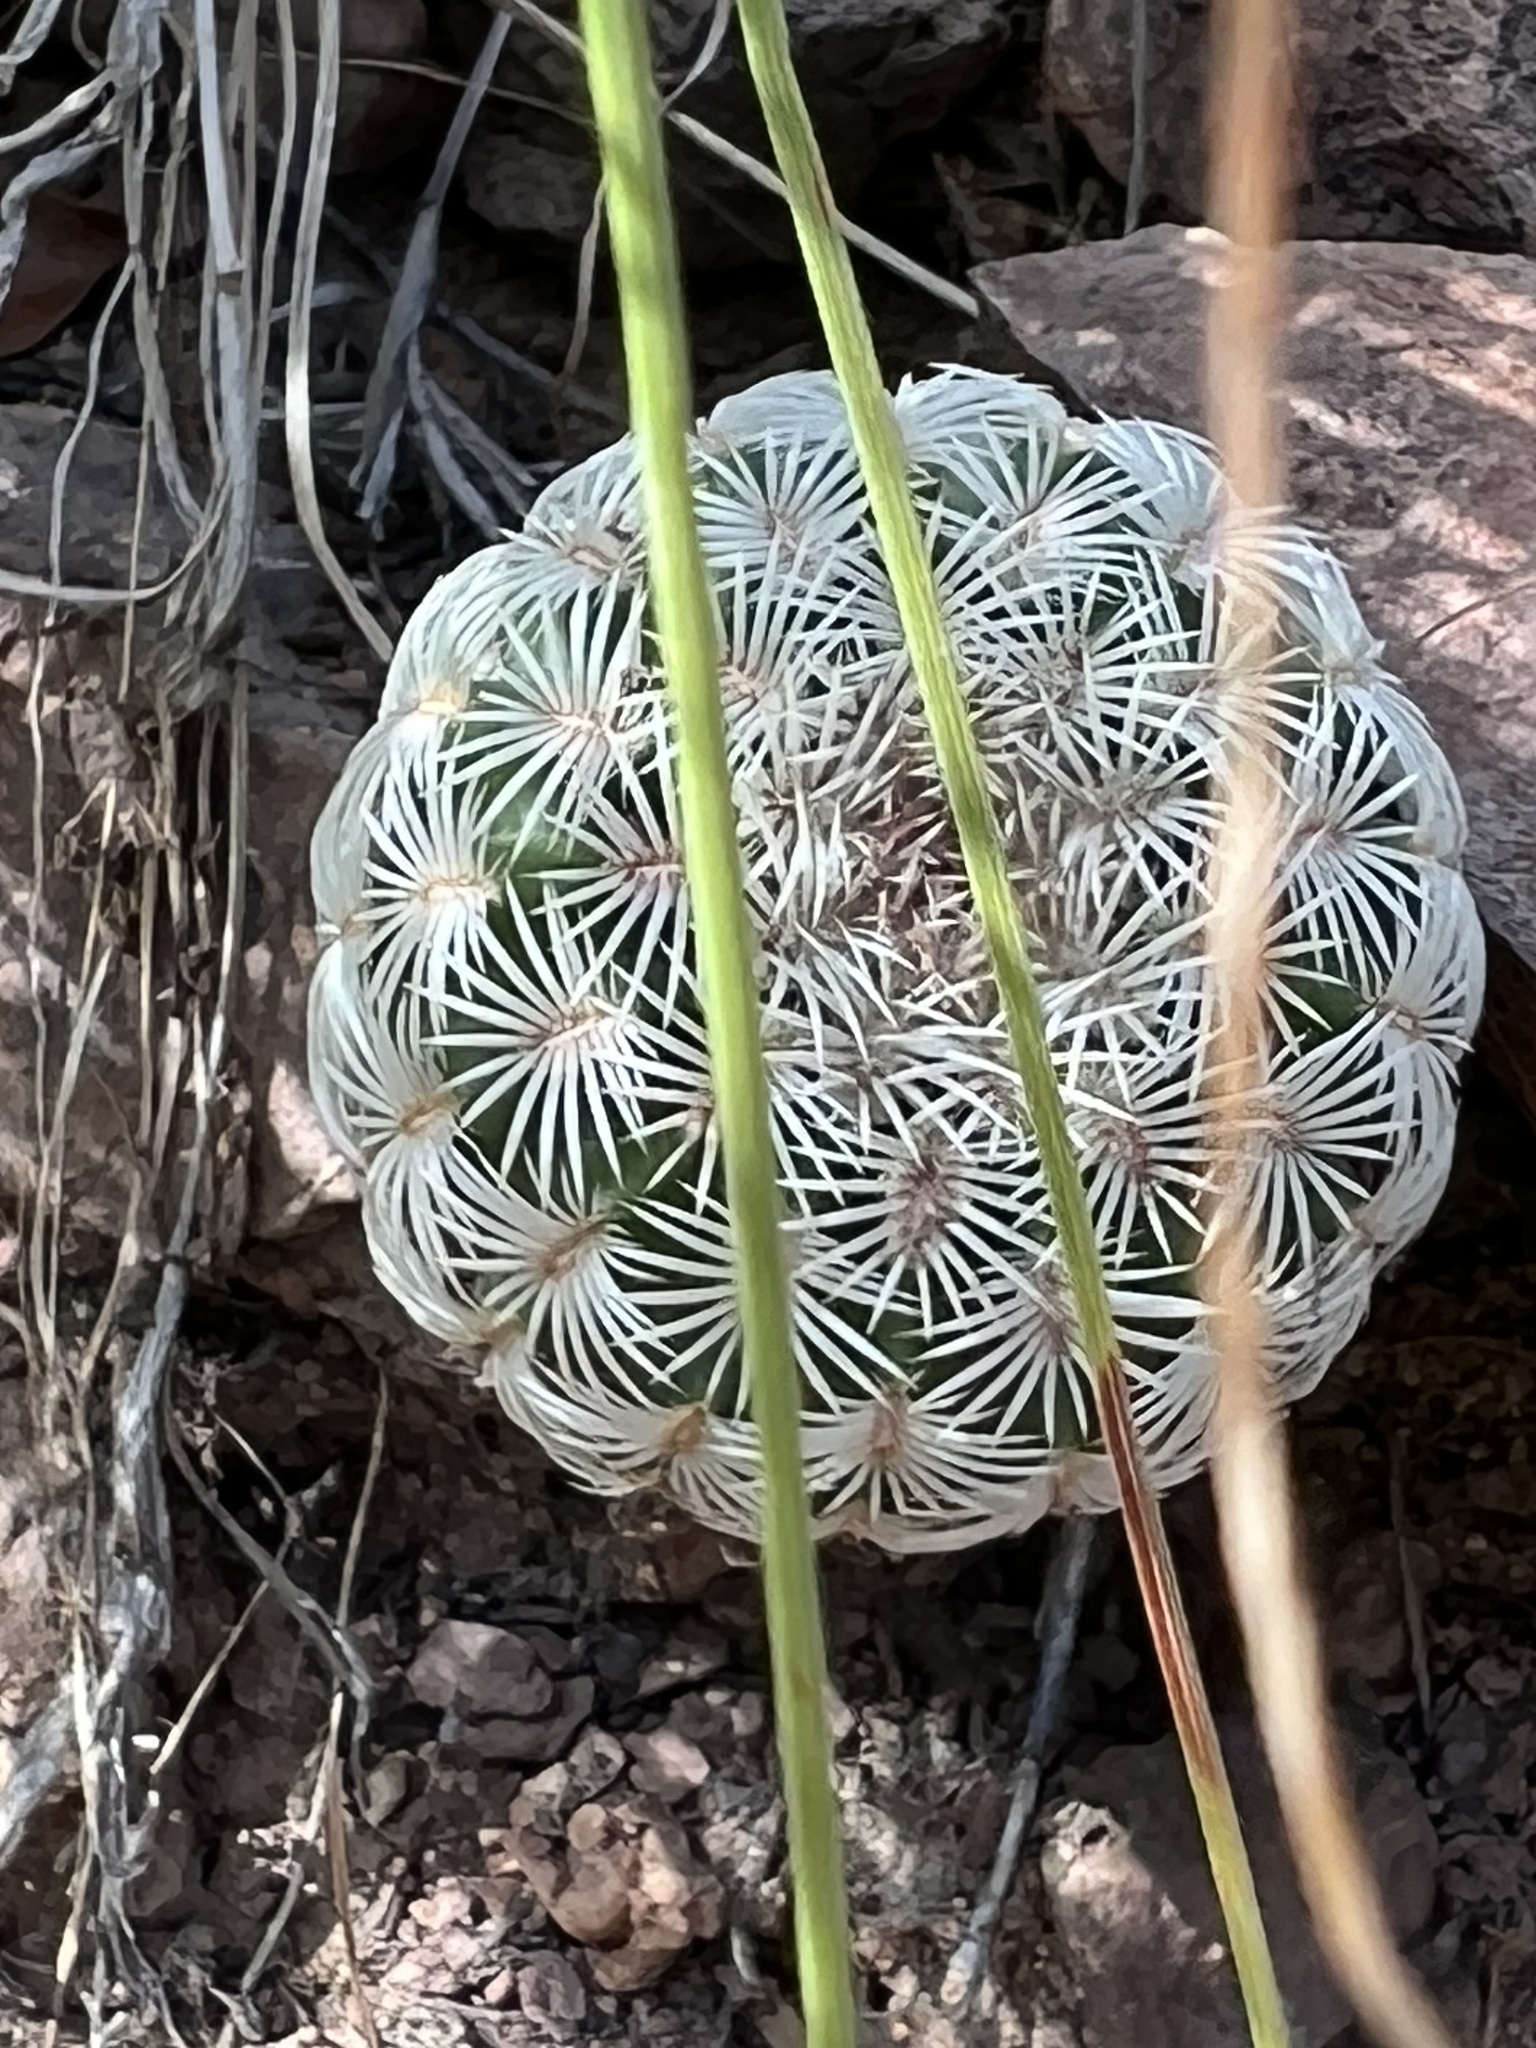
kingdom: Plantae
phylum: Tracheophyta
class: Magnoliopsida
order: Caryophyllales
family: Cactaceae
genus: Echinocereus
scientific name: Echinocereus rigidissimus
